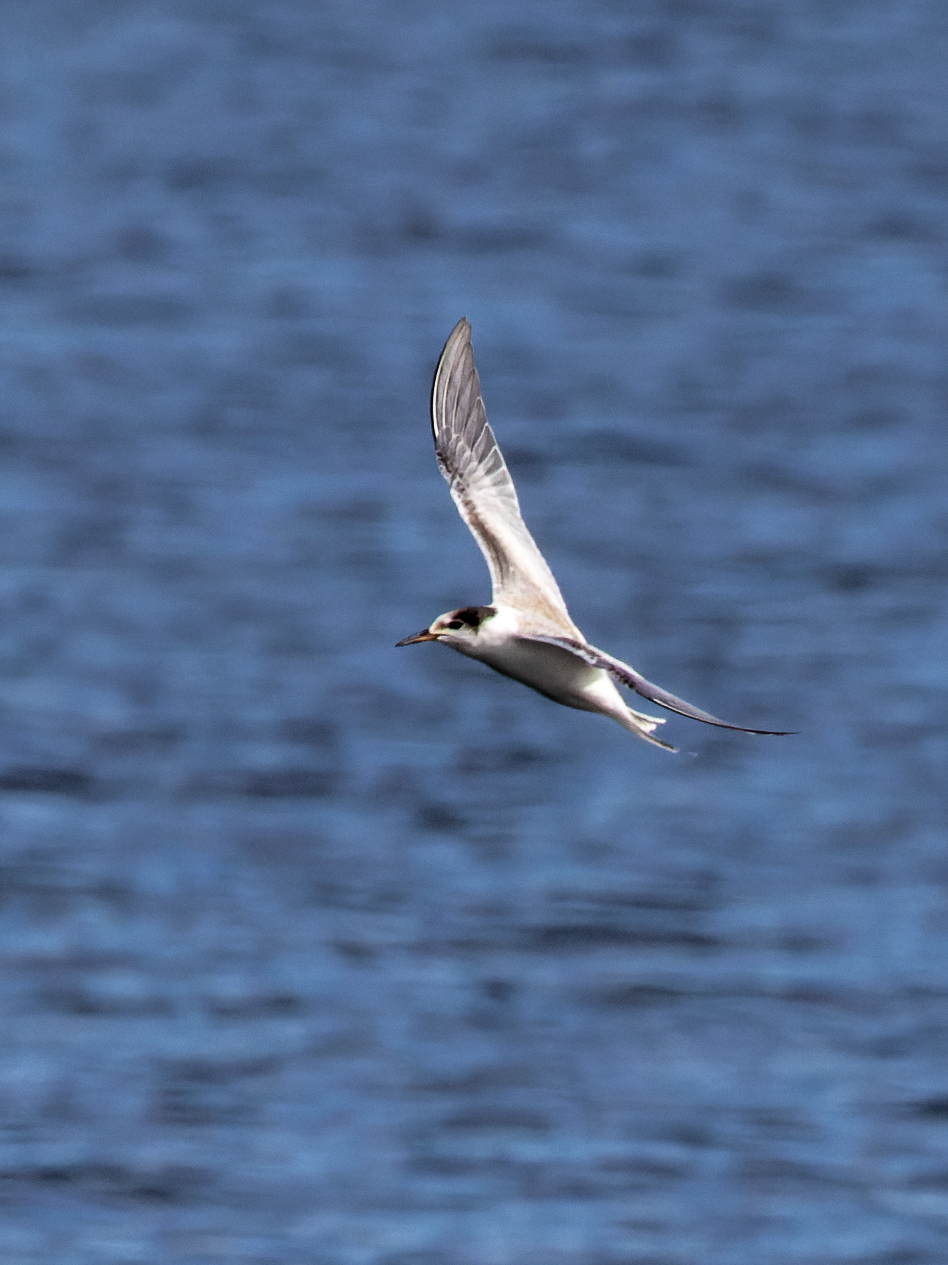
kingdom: Animalia
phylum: Chordata
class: Aves
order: Charadriiformes
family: Laridae
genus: Sterna
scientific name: Sterna hirundo
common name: Common tern
